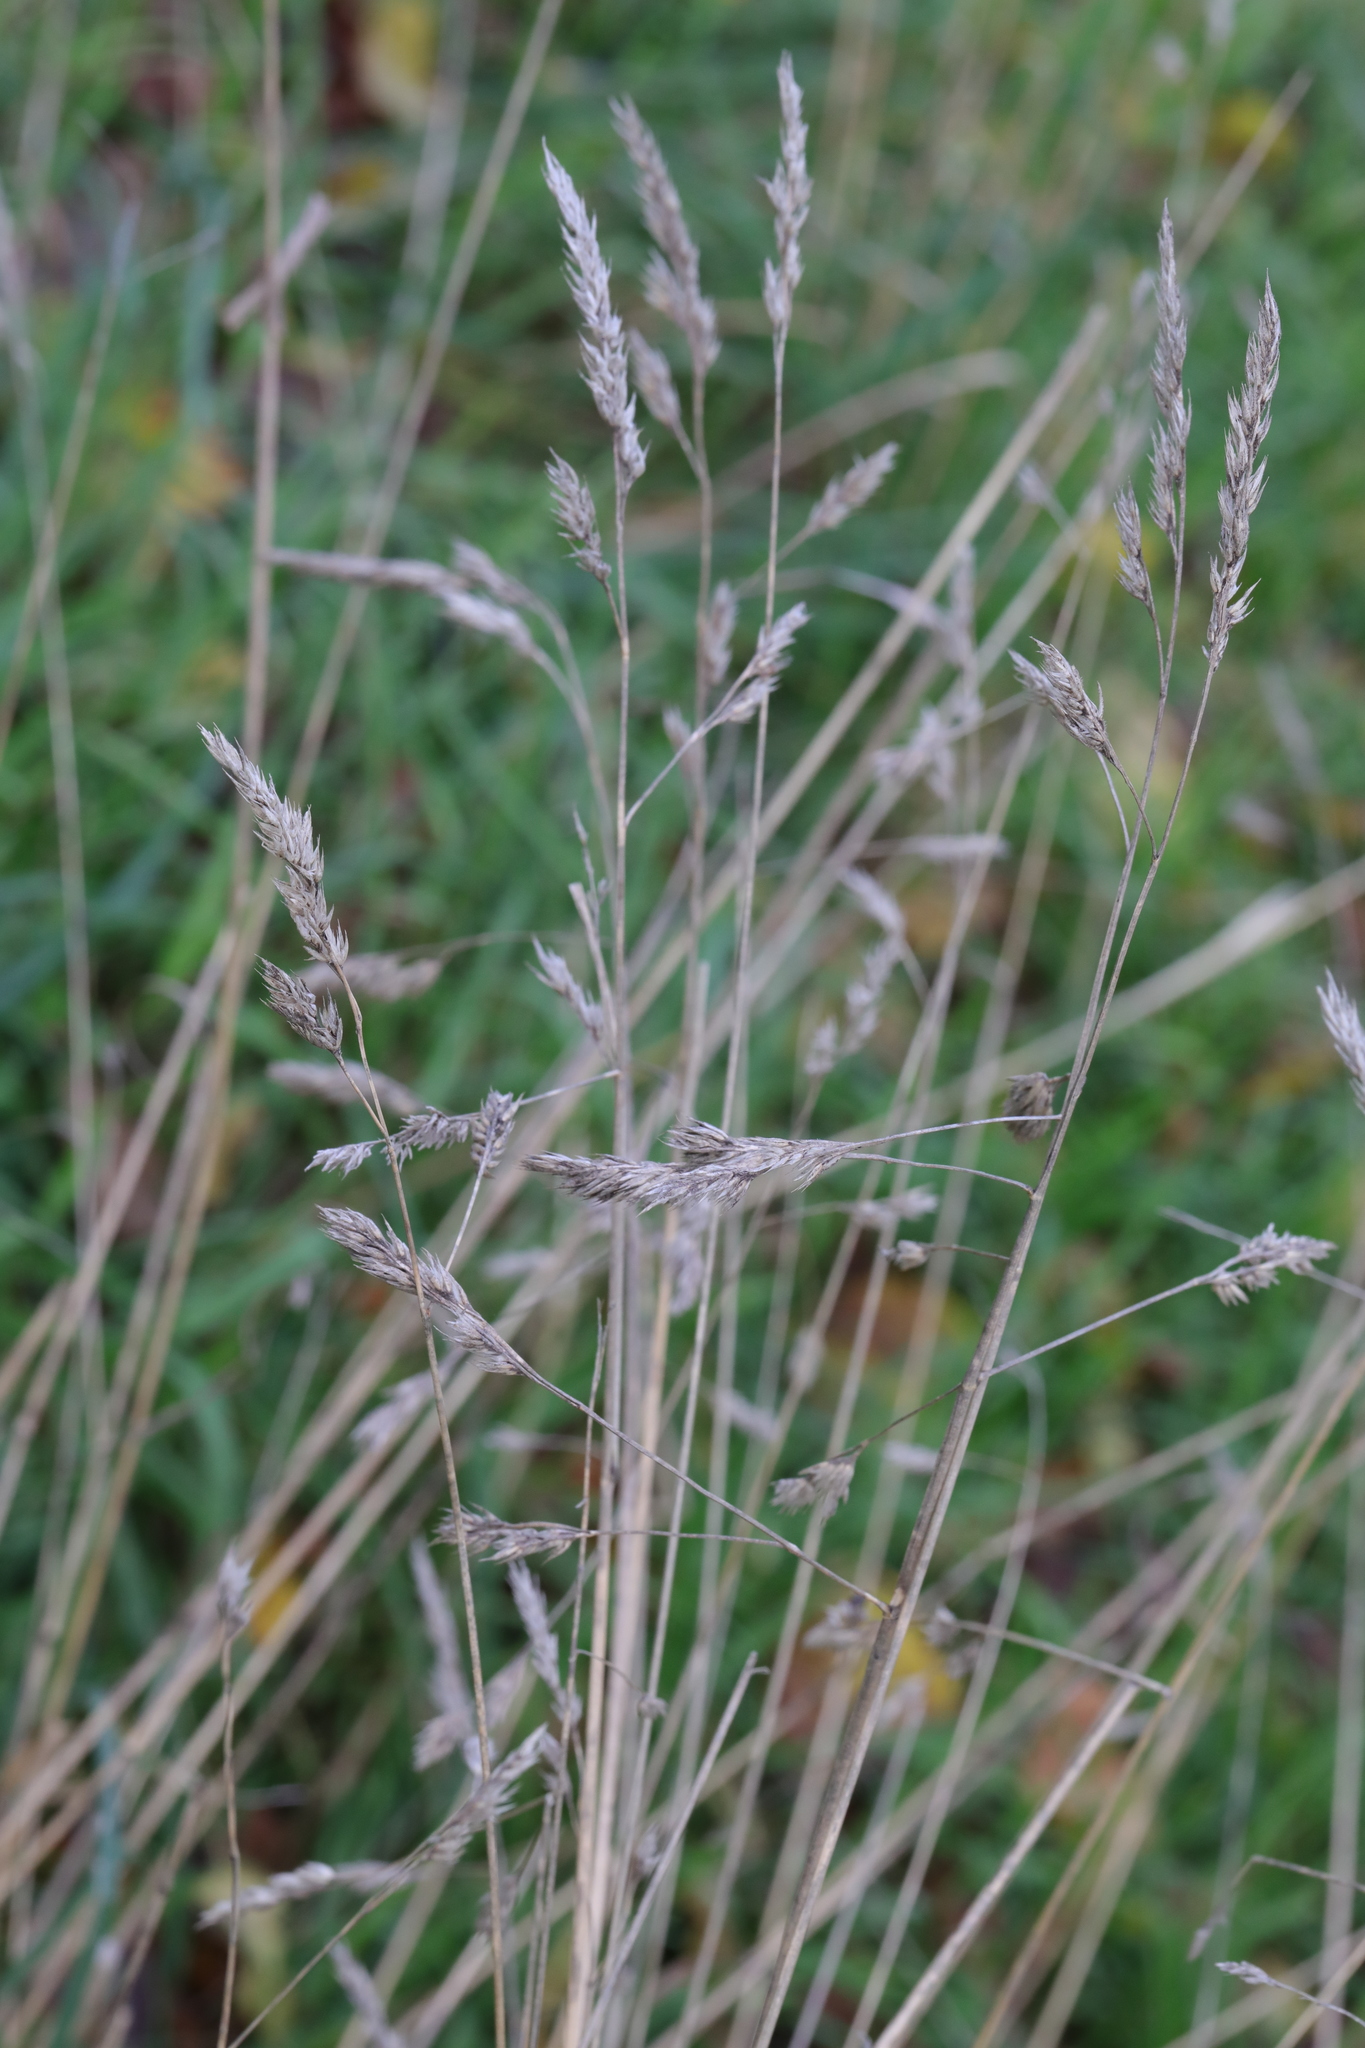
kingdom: Plantae
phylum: Tracheophyta
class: Liliopsida
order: Poales
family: Poaceae
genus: Dactylis
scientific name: Dactylis glomerata
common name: Orchardgrass
